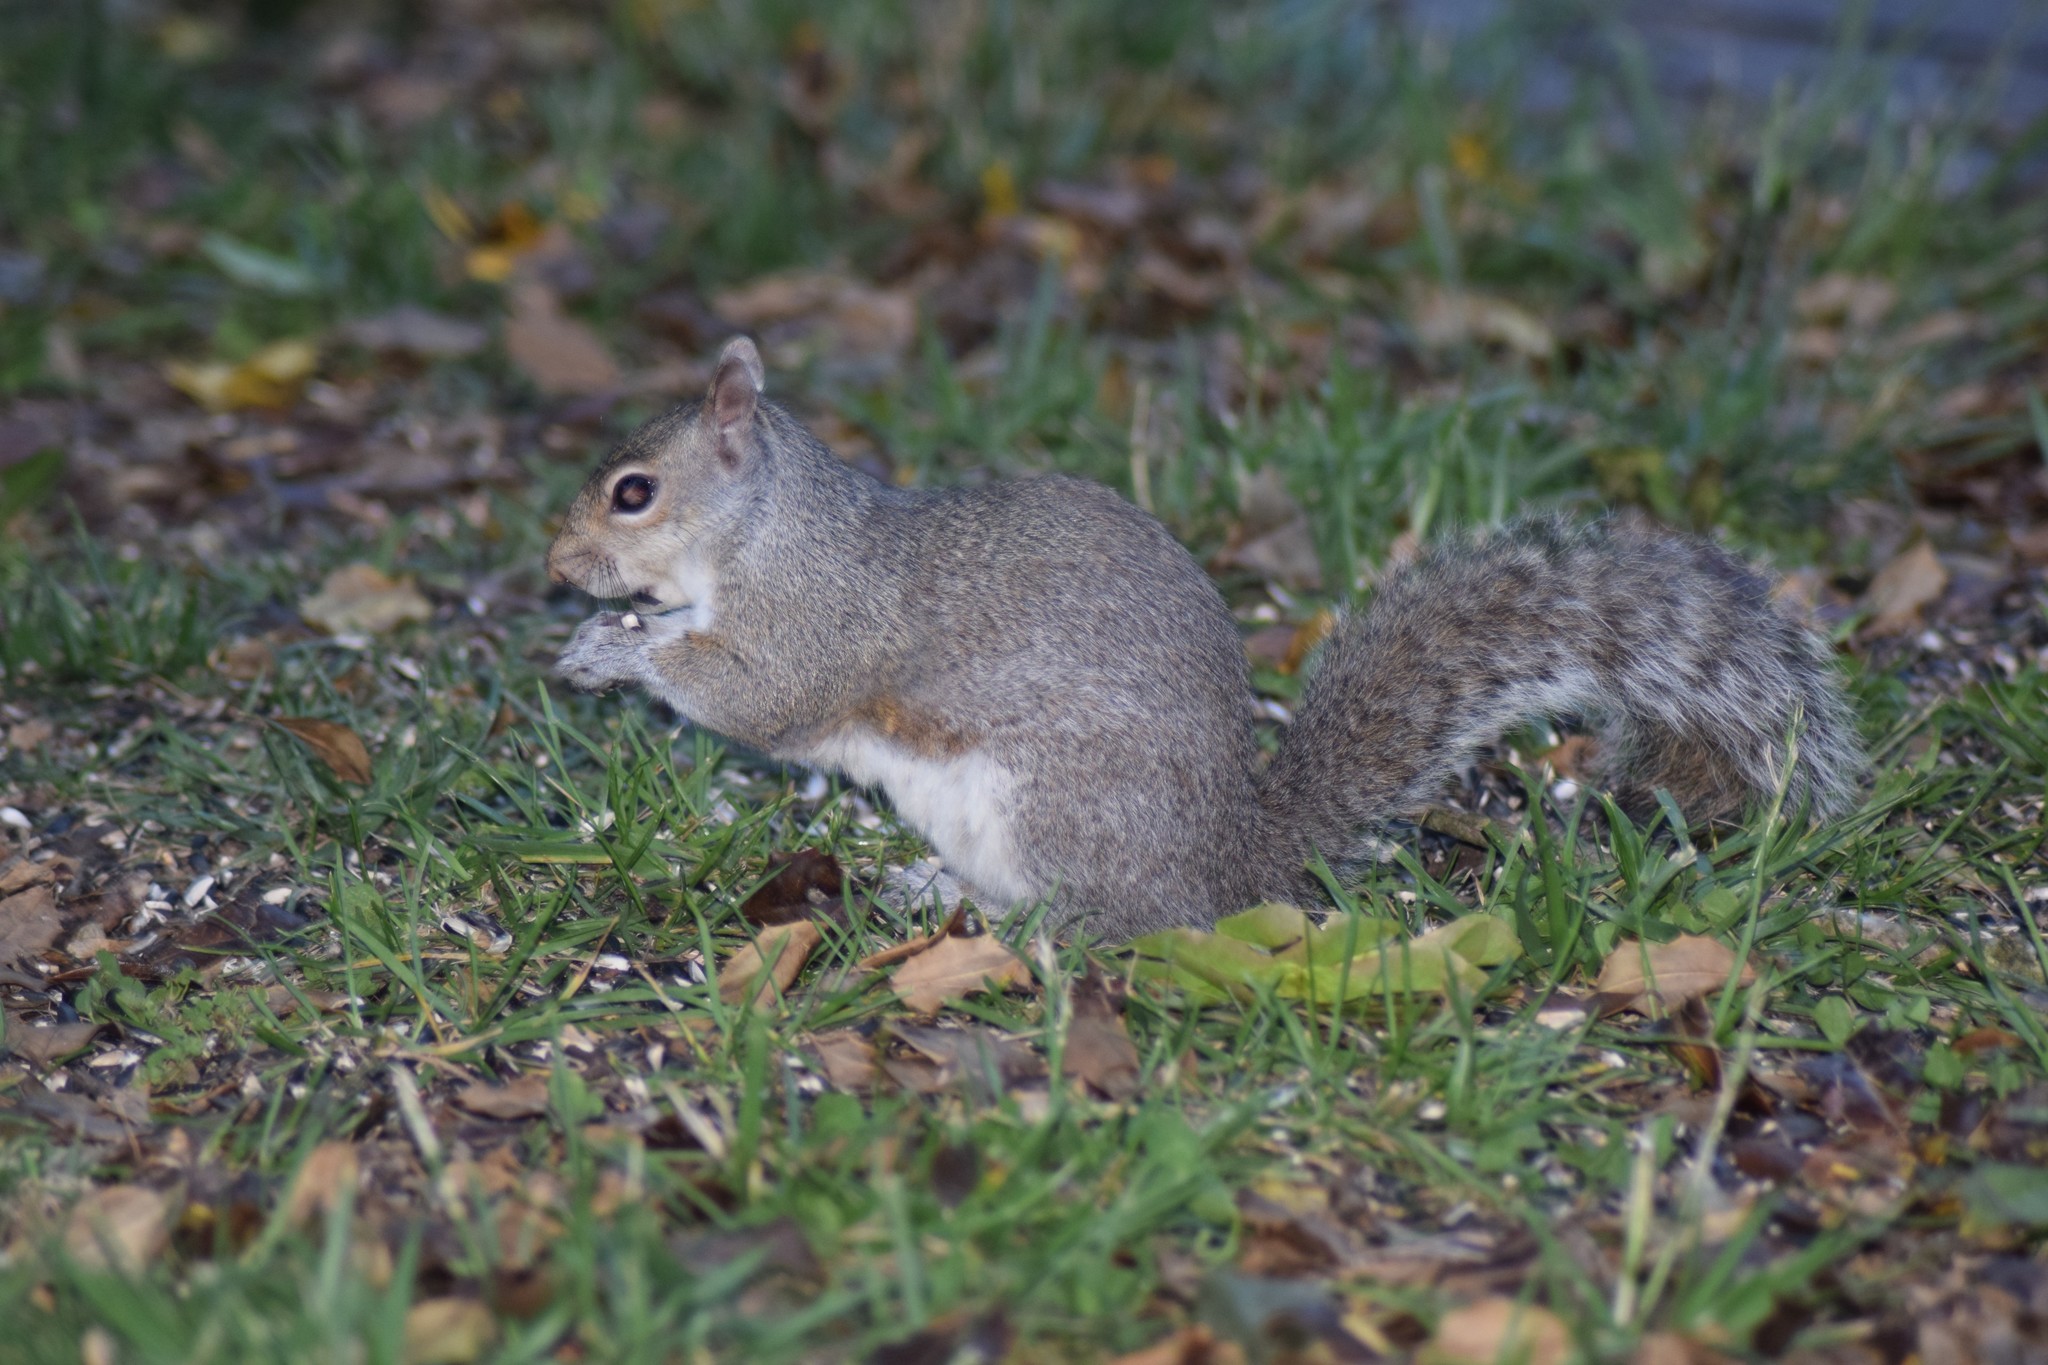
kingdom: Animalia
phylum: Chordata
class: Mammalia
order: Rodentia
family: Sciuridae
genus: Sciurus
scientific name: Sciurus carolinensis
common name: Eastern gray squirrel
